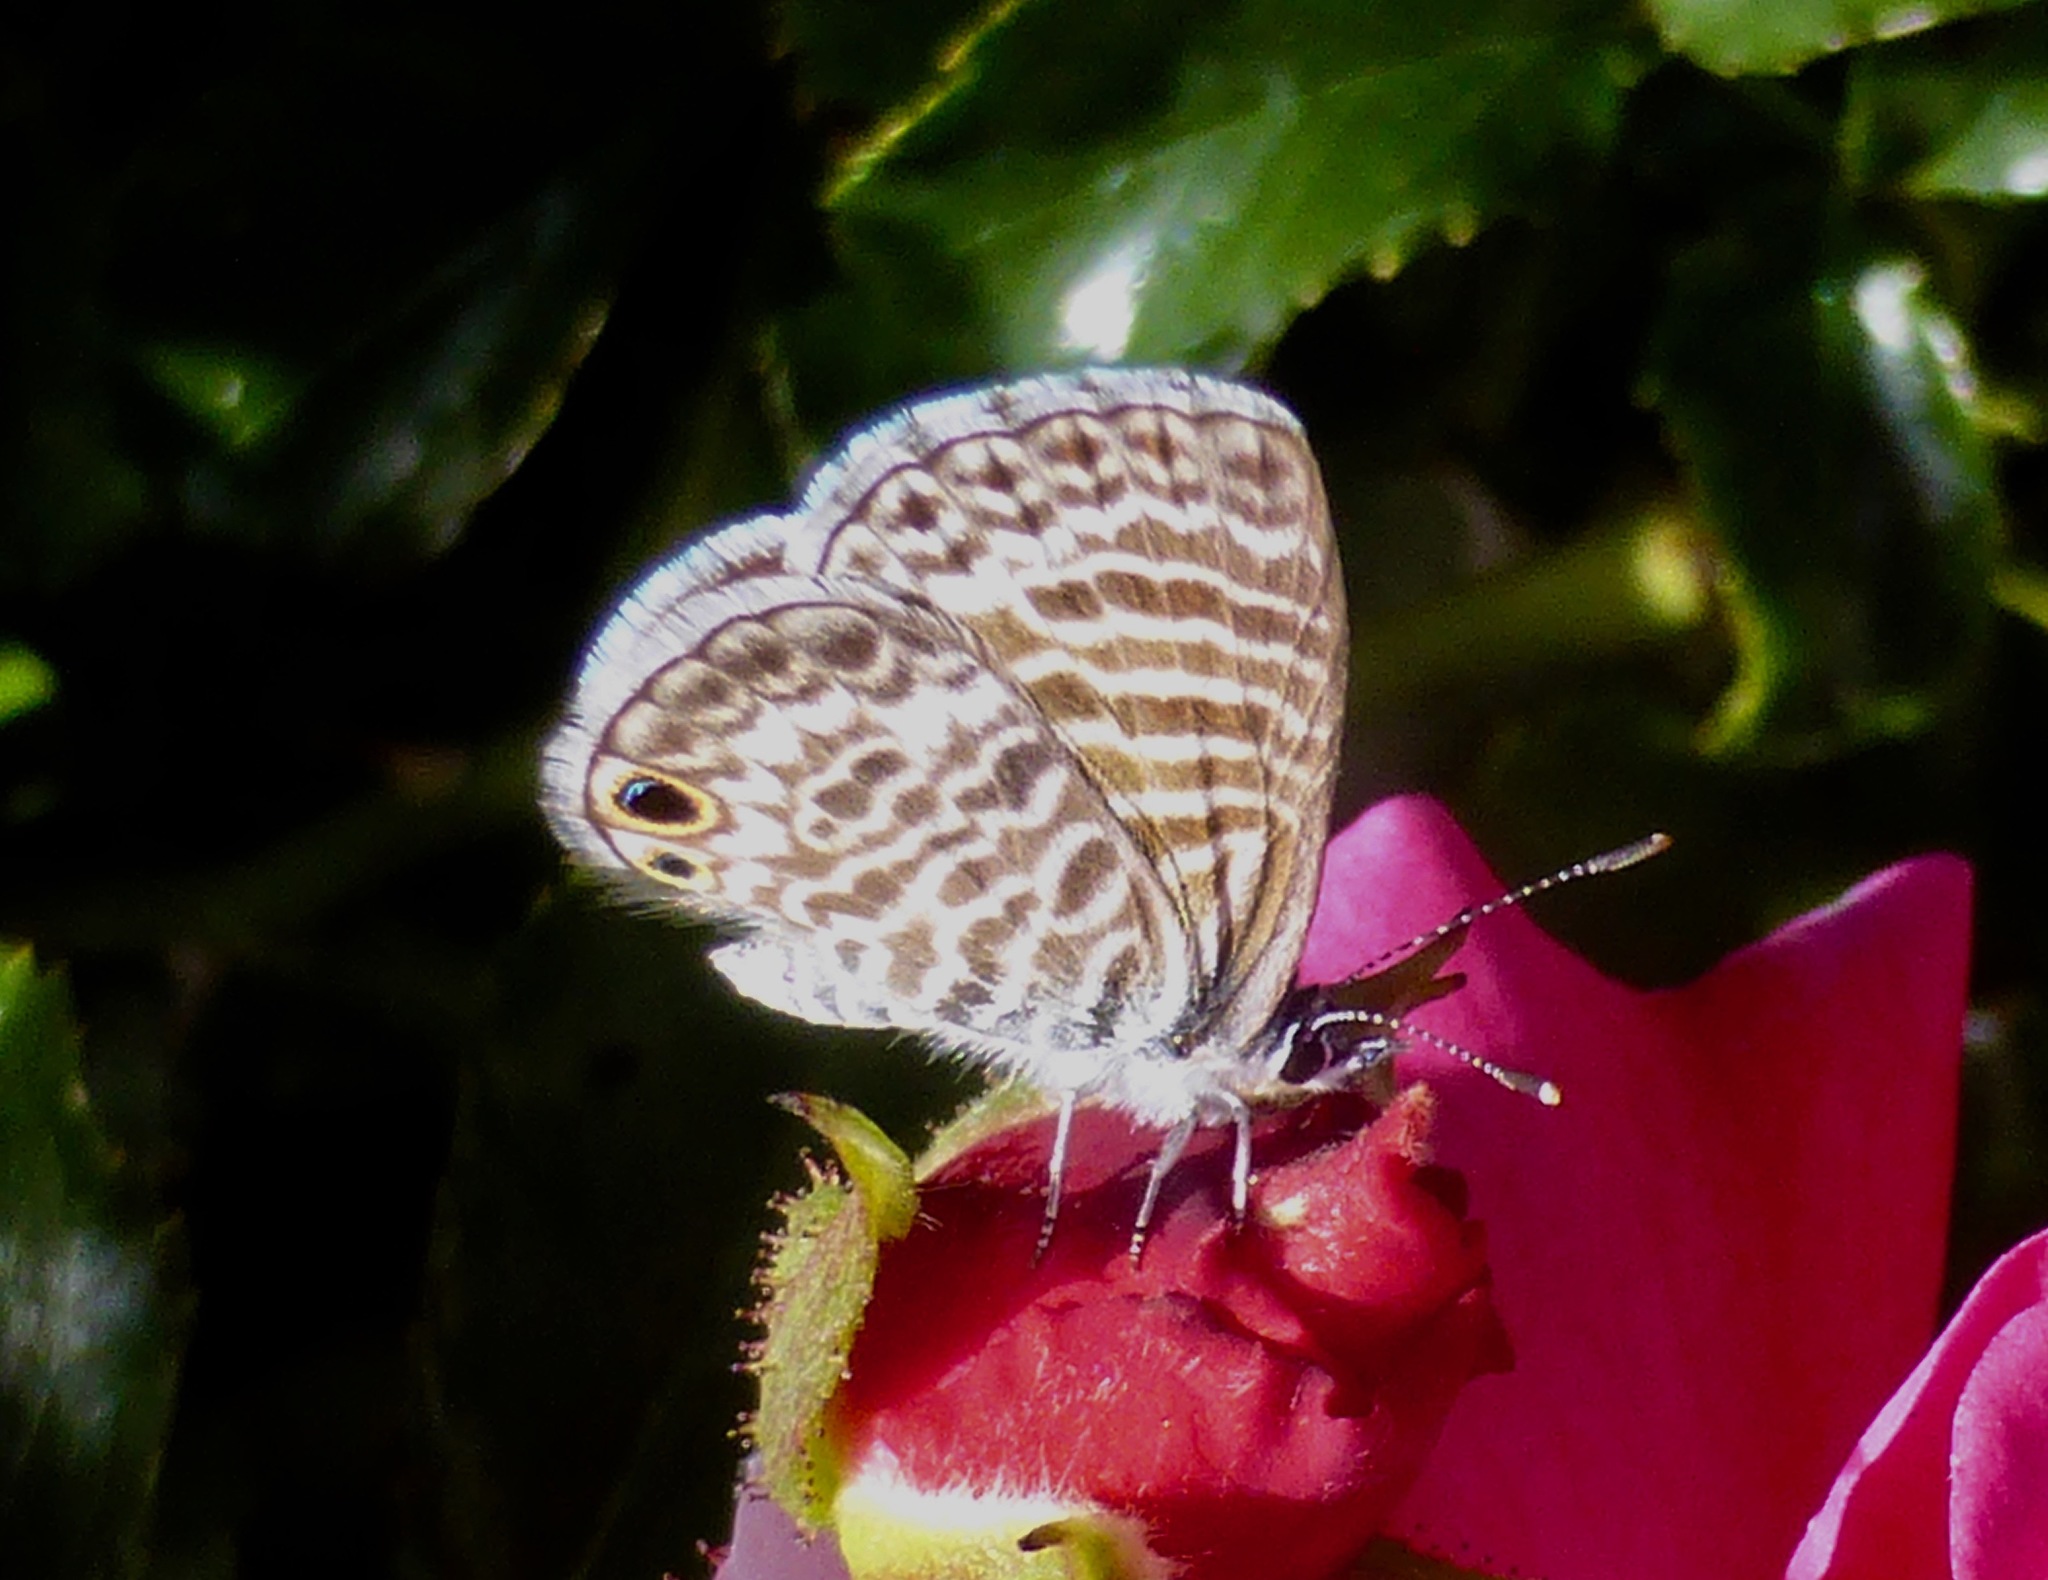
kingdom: Animalia
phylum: Arthropoda
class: Insecta
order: Lepidoptera
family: Lycaenidae
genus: Leptotes
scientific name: Leptotes marina
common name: Marine blue
